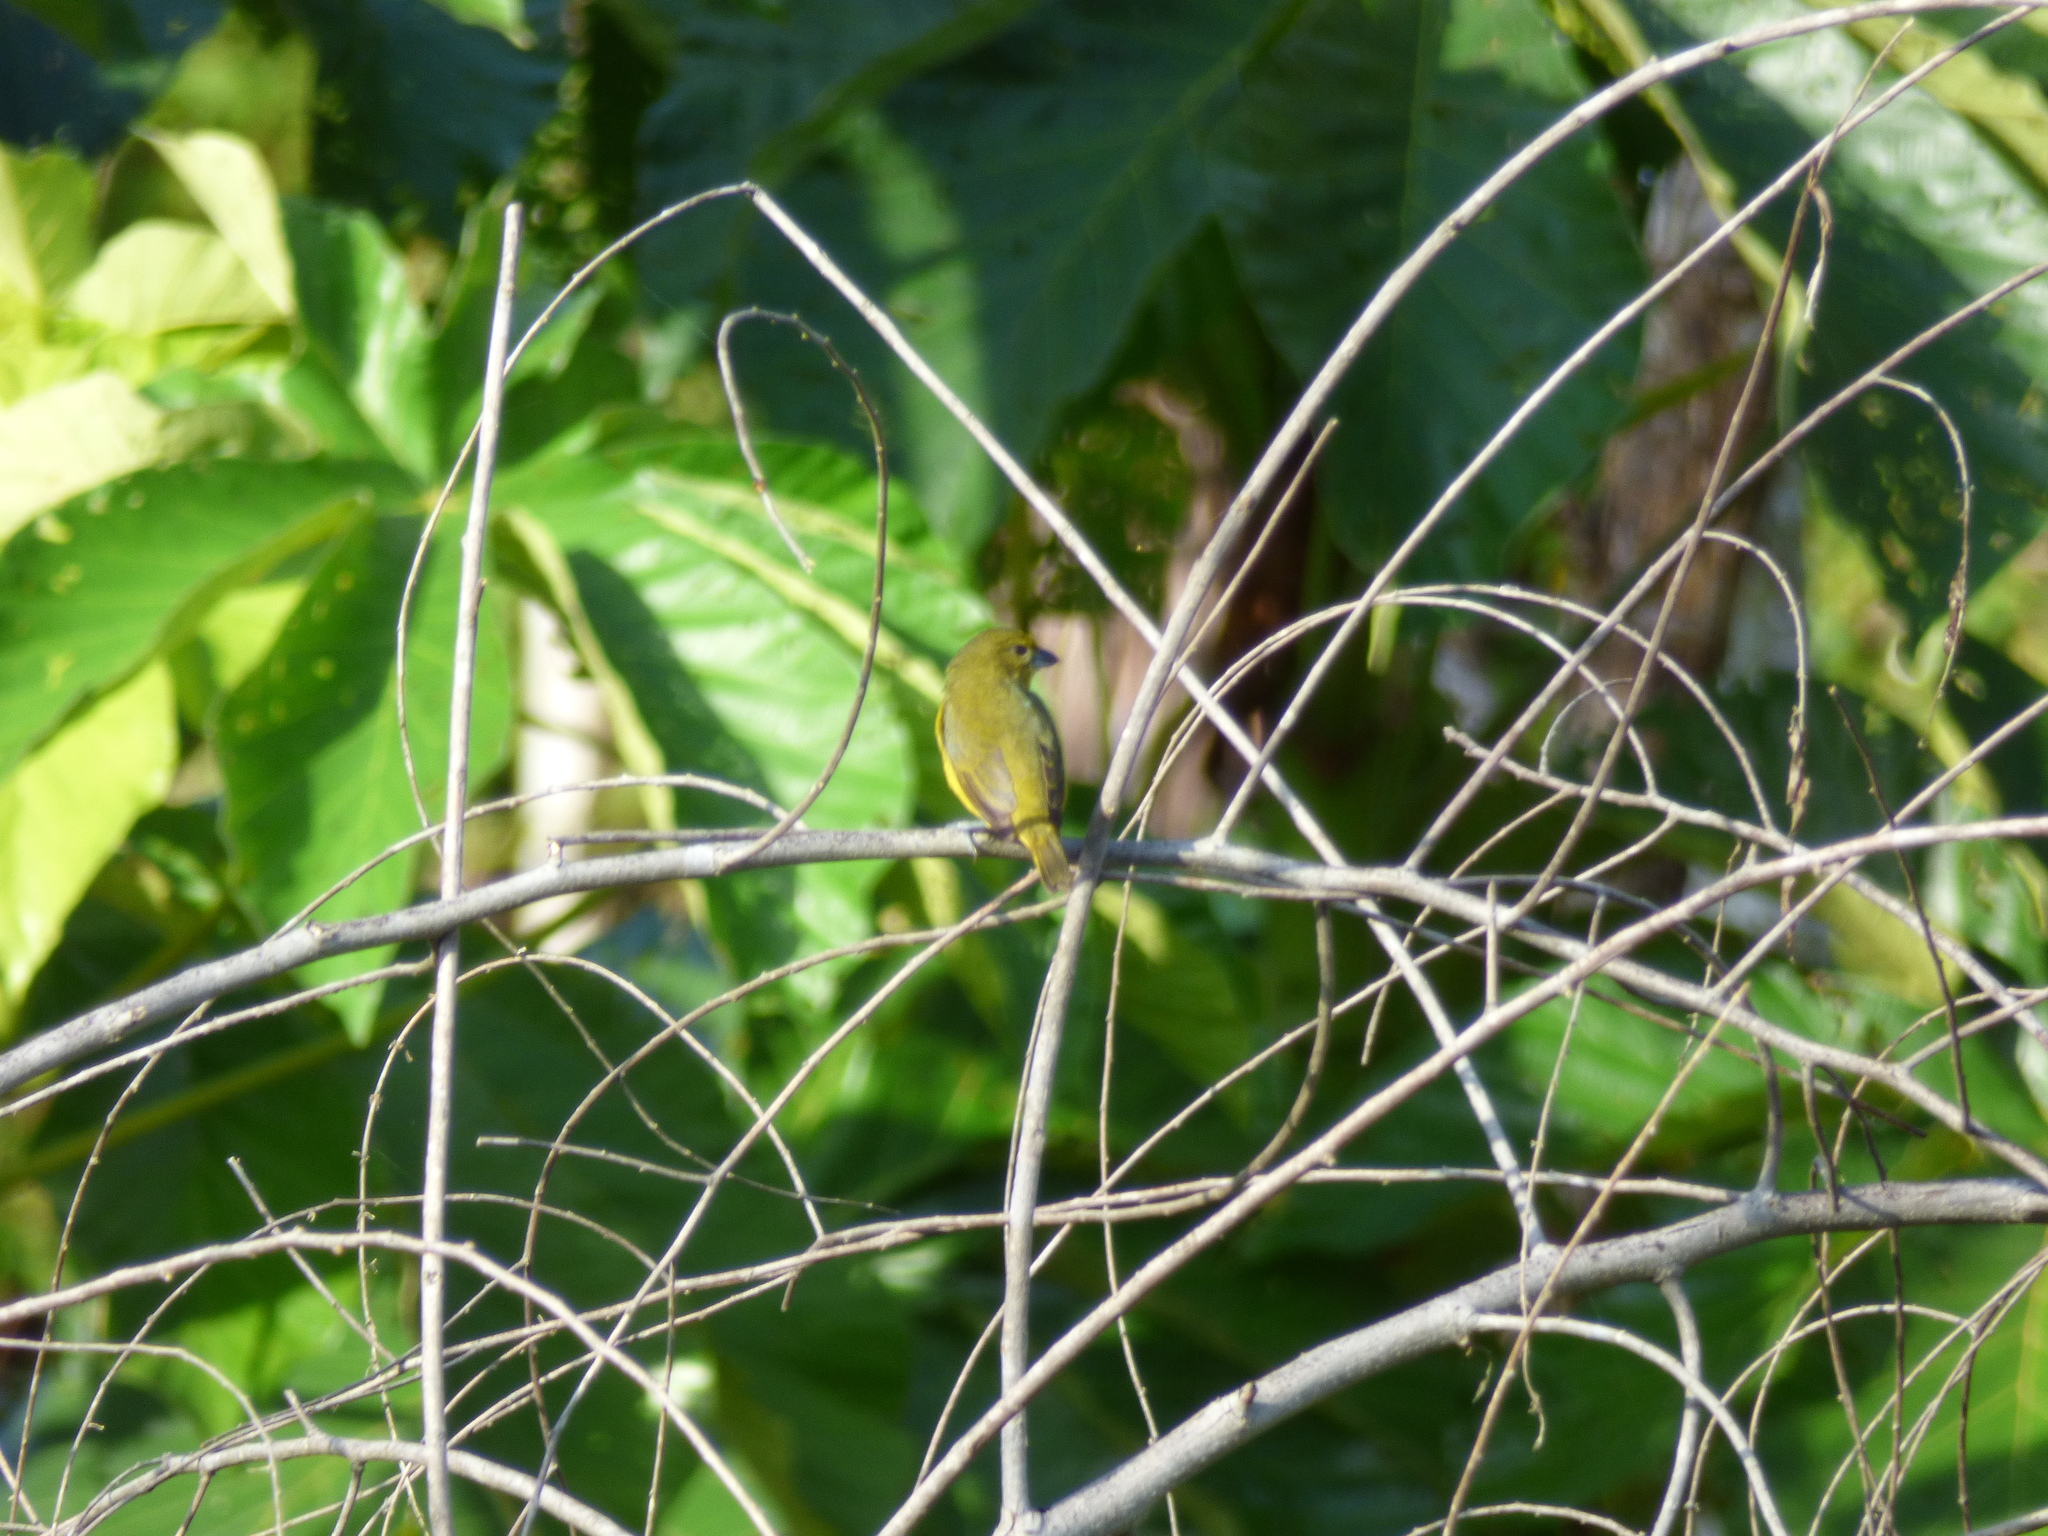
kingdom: Animalia
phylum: Chordata
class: Aves
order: Passeriformes
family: Fringillidae
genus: Euphonia
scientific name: Euphonia laniirostris
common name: Thick-billed euphonia
